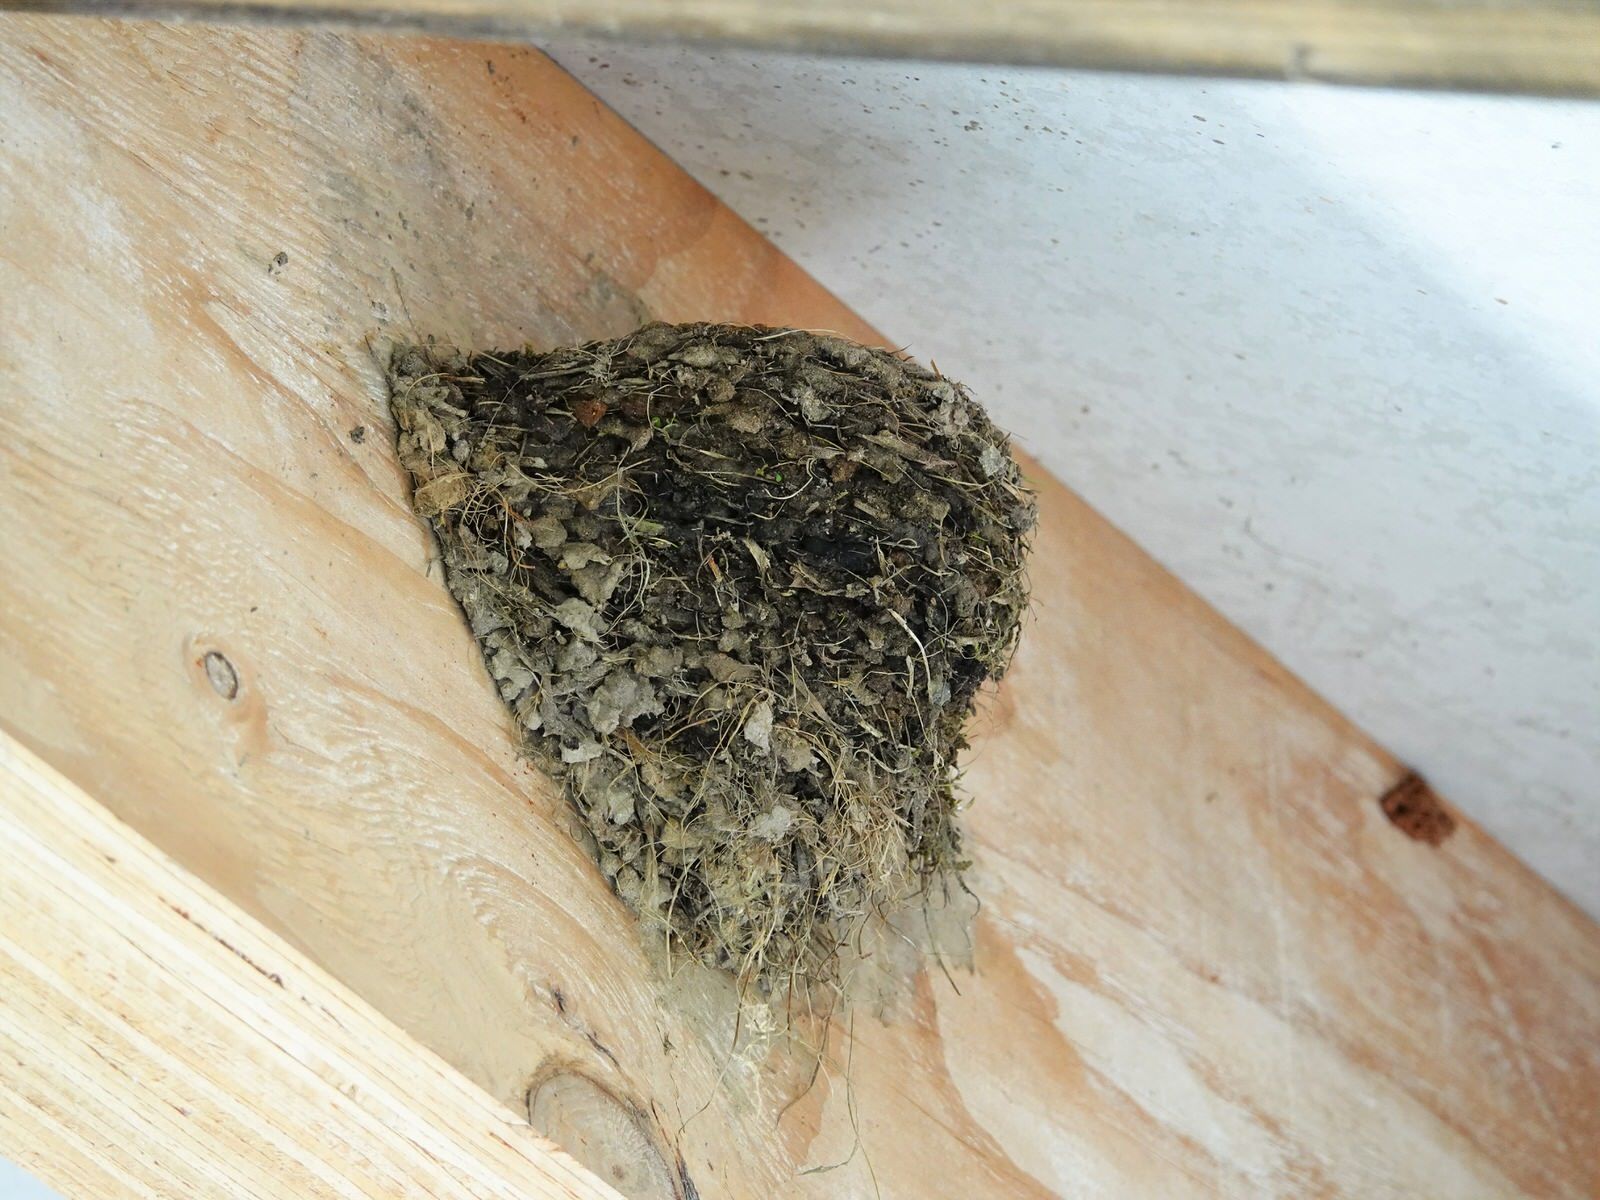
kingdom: Animalia
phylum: Chordata
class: Aves
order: Passeriformes
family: Hirundinidae
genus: Hirundo
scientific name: Hirundo neoxena
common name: Welcome swallow
